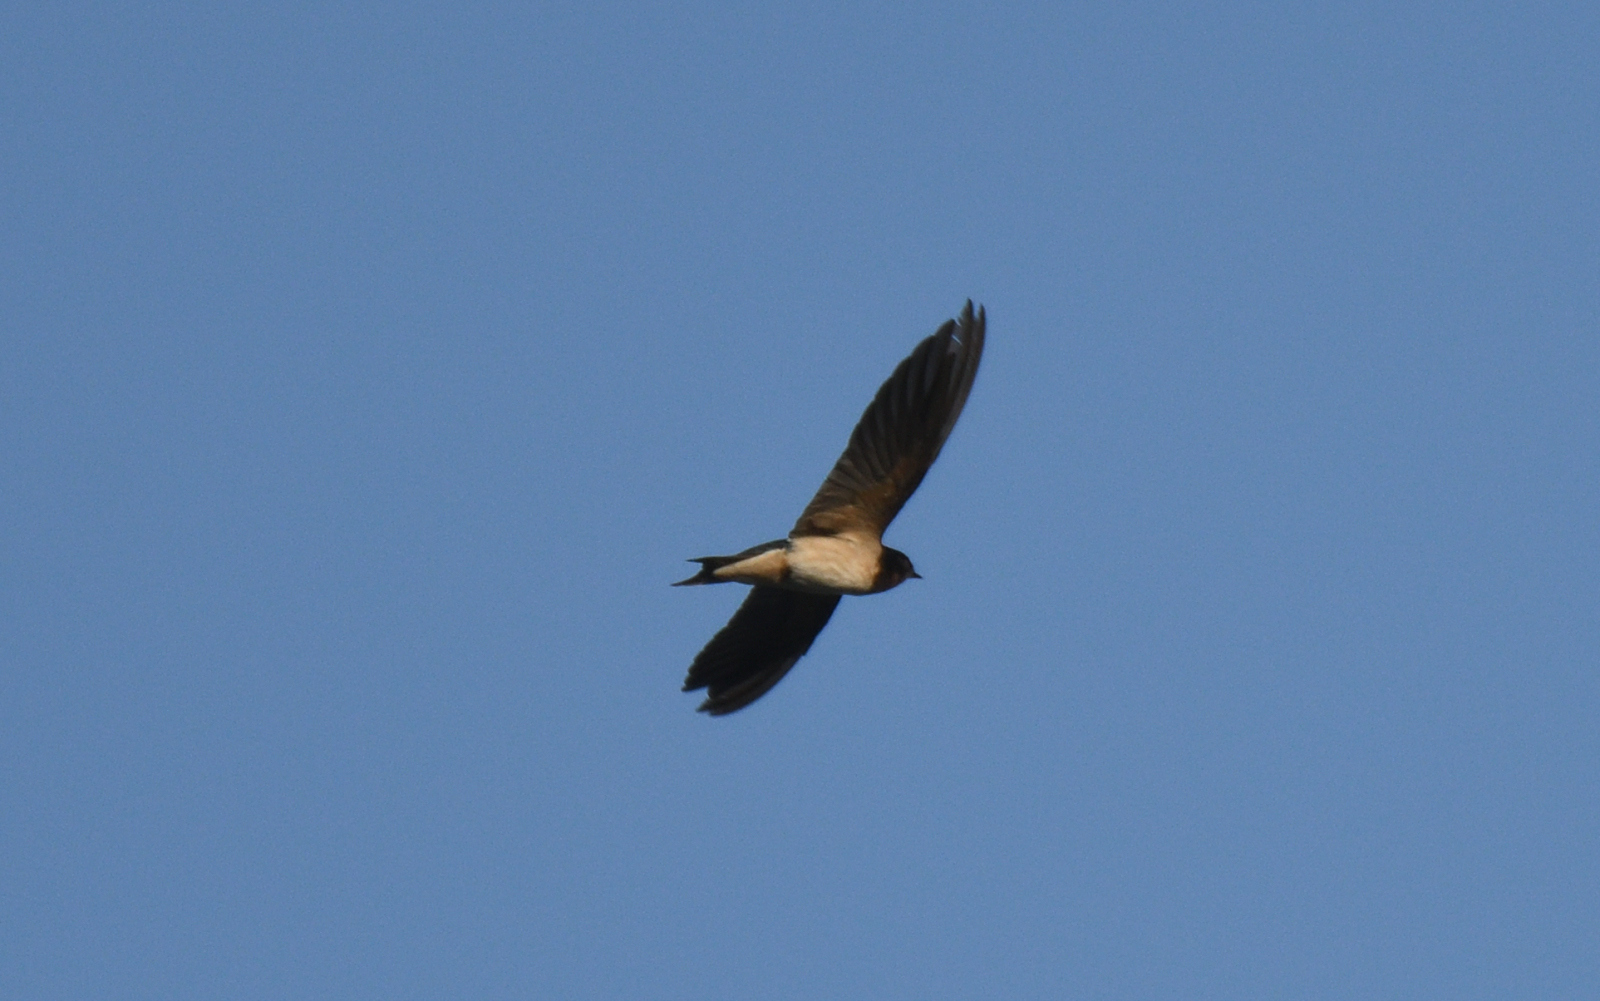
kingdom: Animalia
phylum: Chordata
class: Aves
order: Passeriformes
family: Hirundinidae
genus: Hirundo
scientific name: Hirundo rustica
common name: Barn swallow
